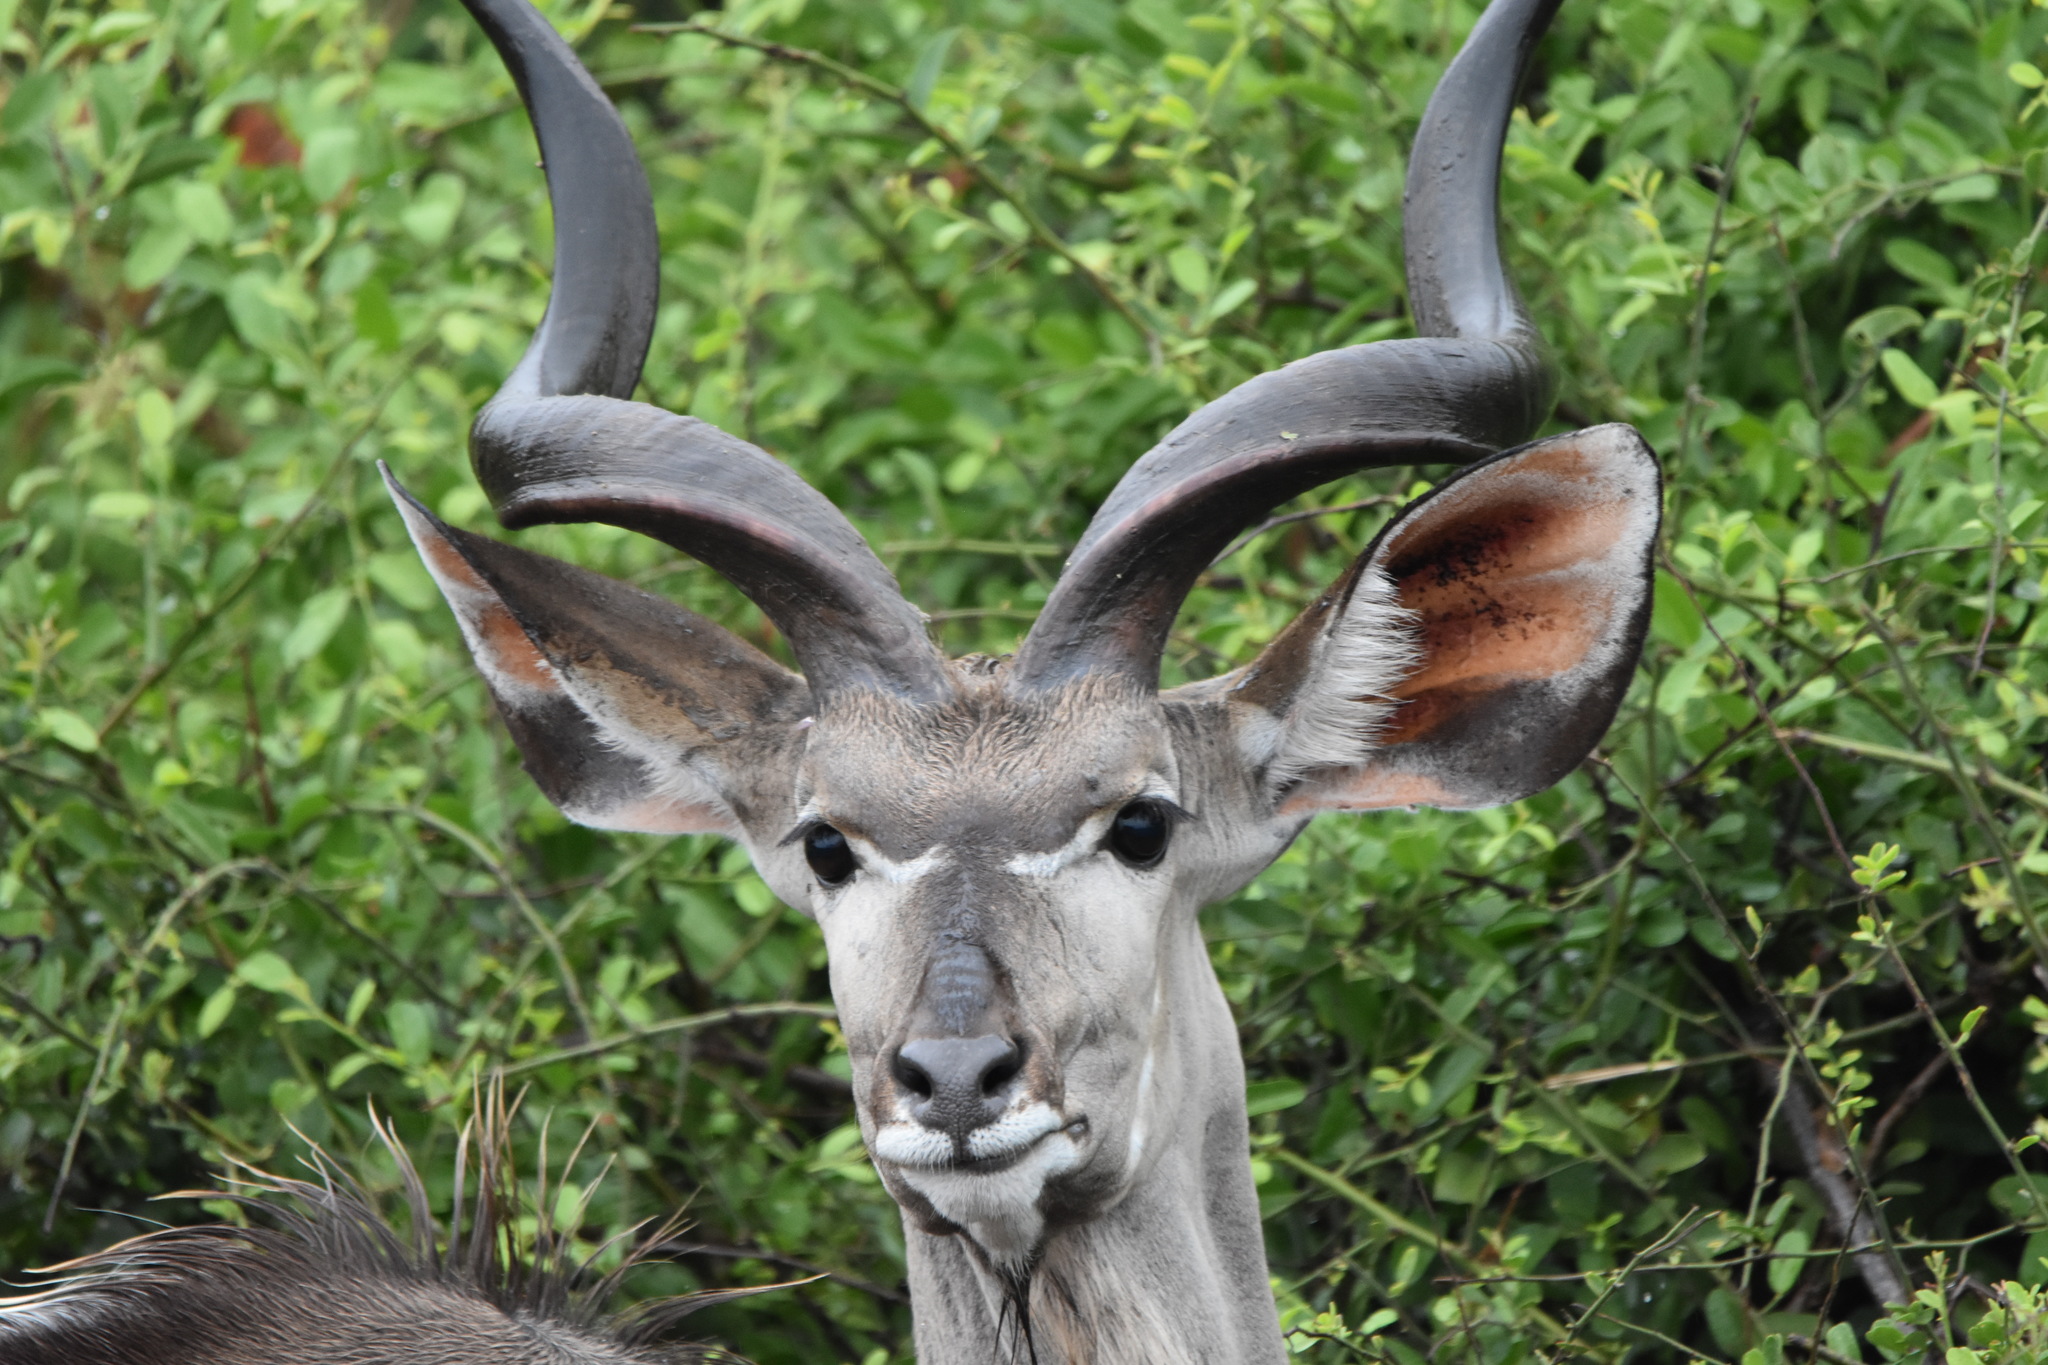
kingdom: Animalia
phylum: Chordata
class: Mammalia
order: Artiodactyla
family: Bovidae
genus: Tragelaphus
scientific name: Tragelaphus strepsiceros
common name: Greater kudu
